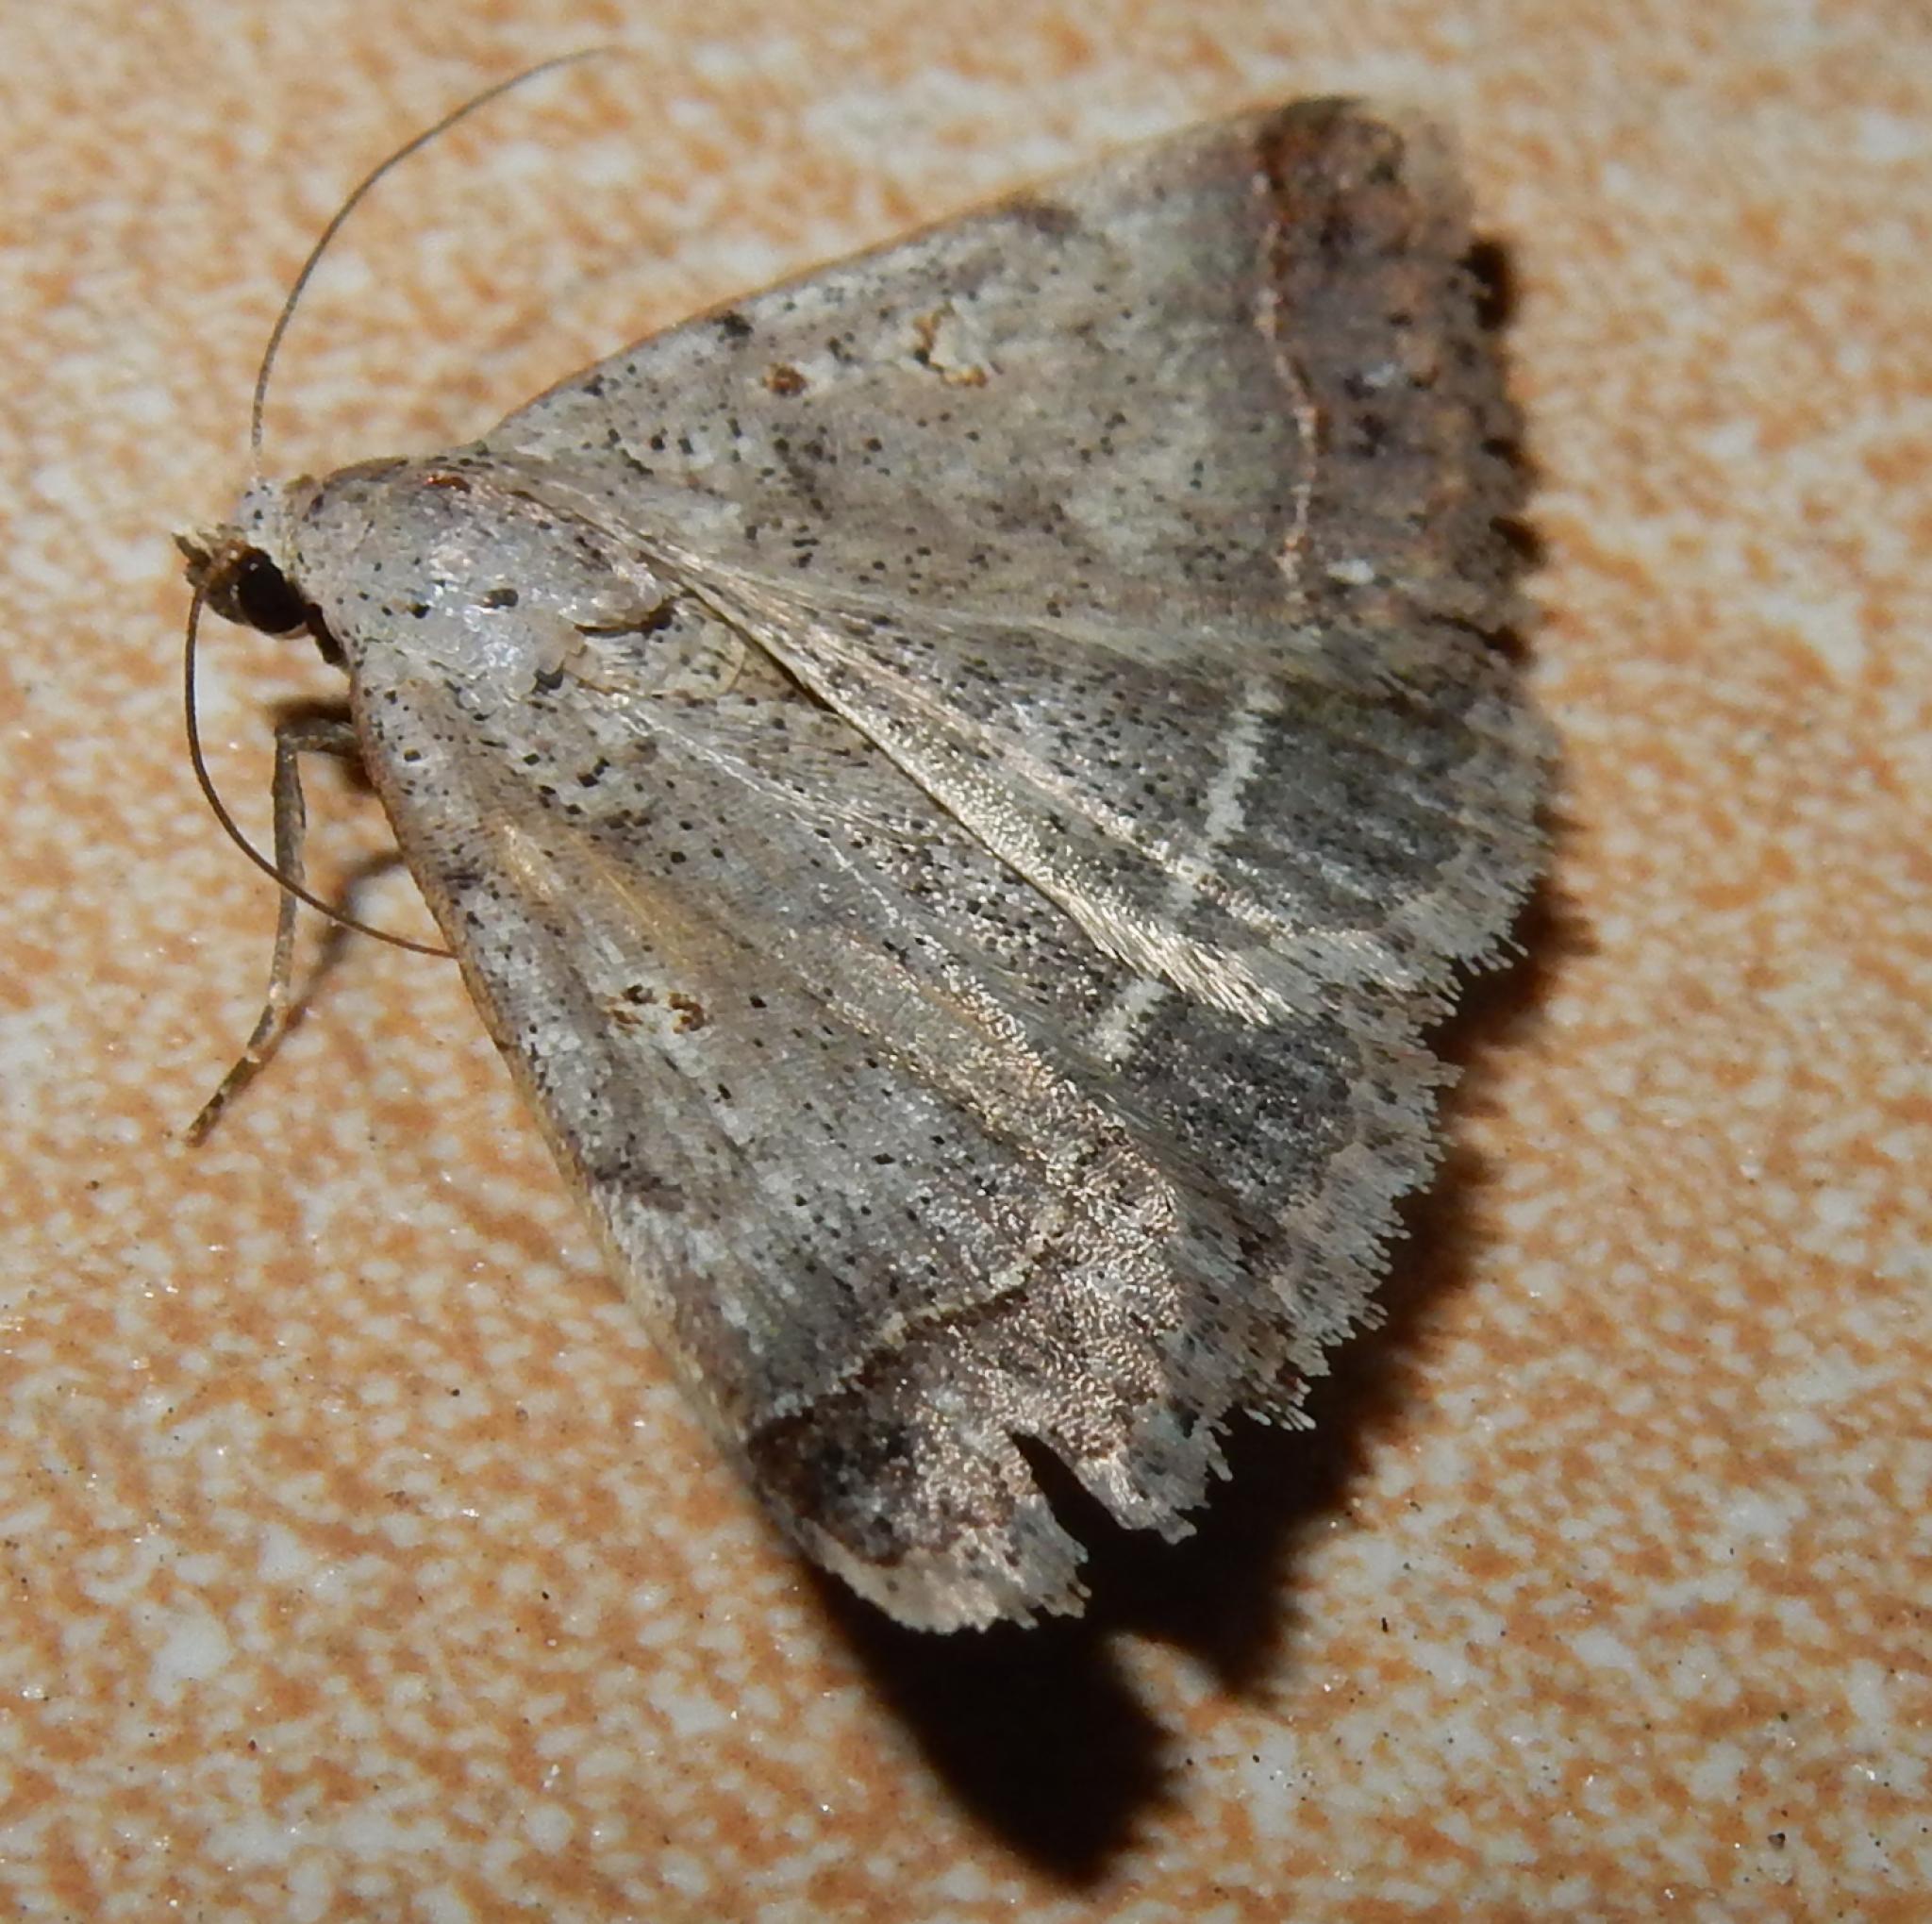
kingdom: Animalia
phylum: Arthropoda
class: Insecta
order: Lepidoptera
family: Erebidae
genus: Plecoptera
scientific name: Plecoptera annexa
